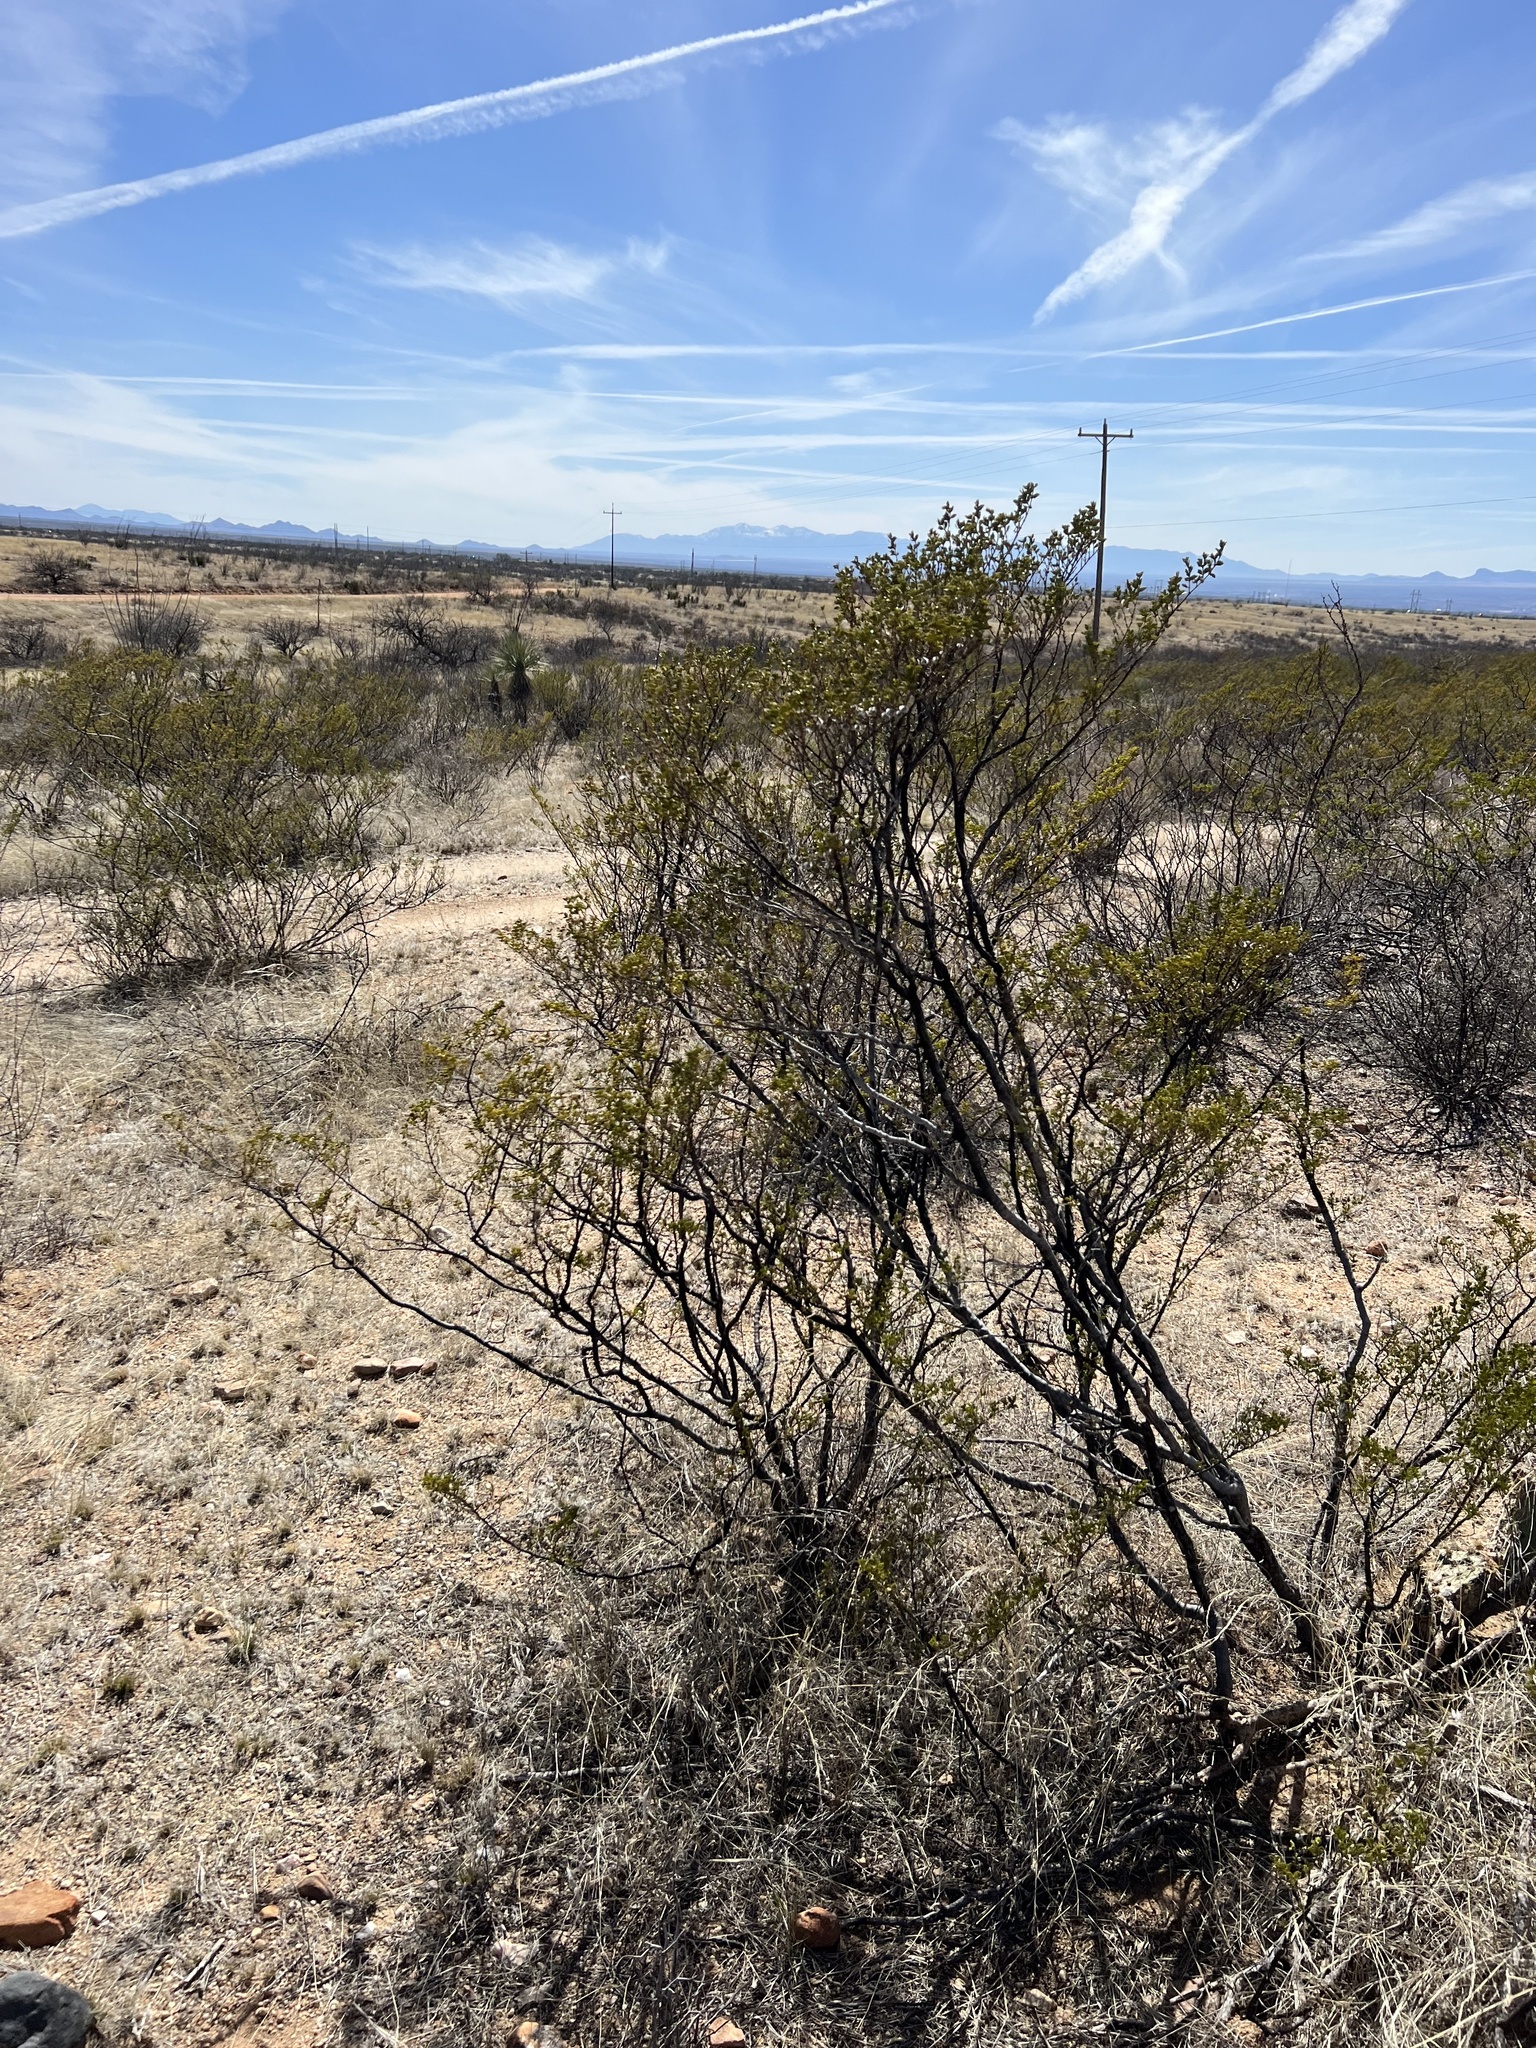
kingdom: Plantae
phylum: Tracheophyta
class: Magnoliopsida
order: Zygophyllales
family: Zygophyllaceae
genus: Larrea
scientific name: Larrea tridentata
